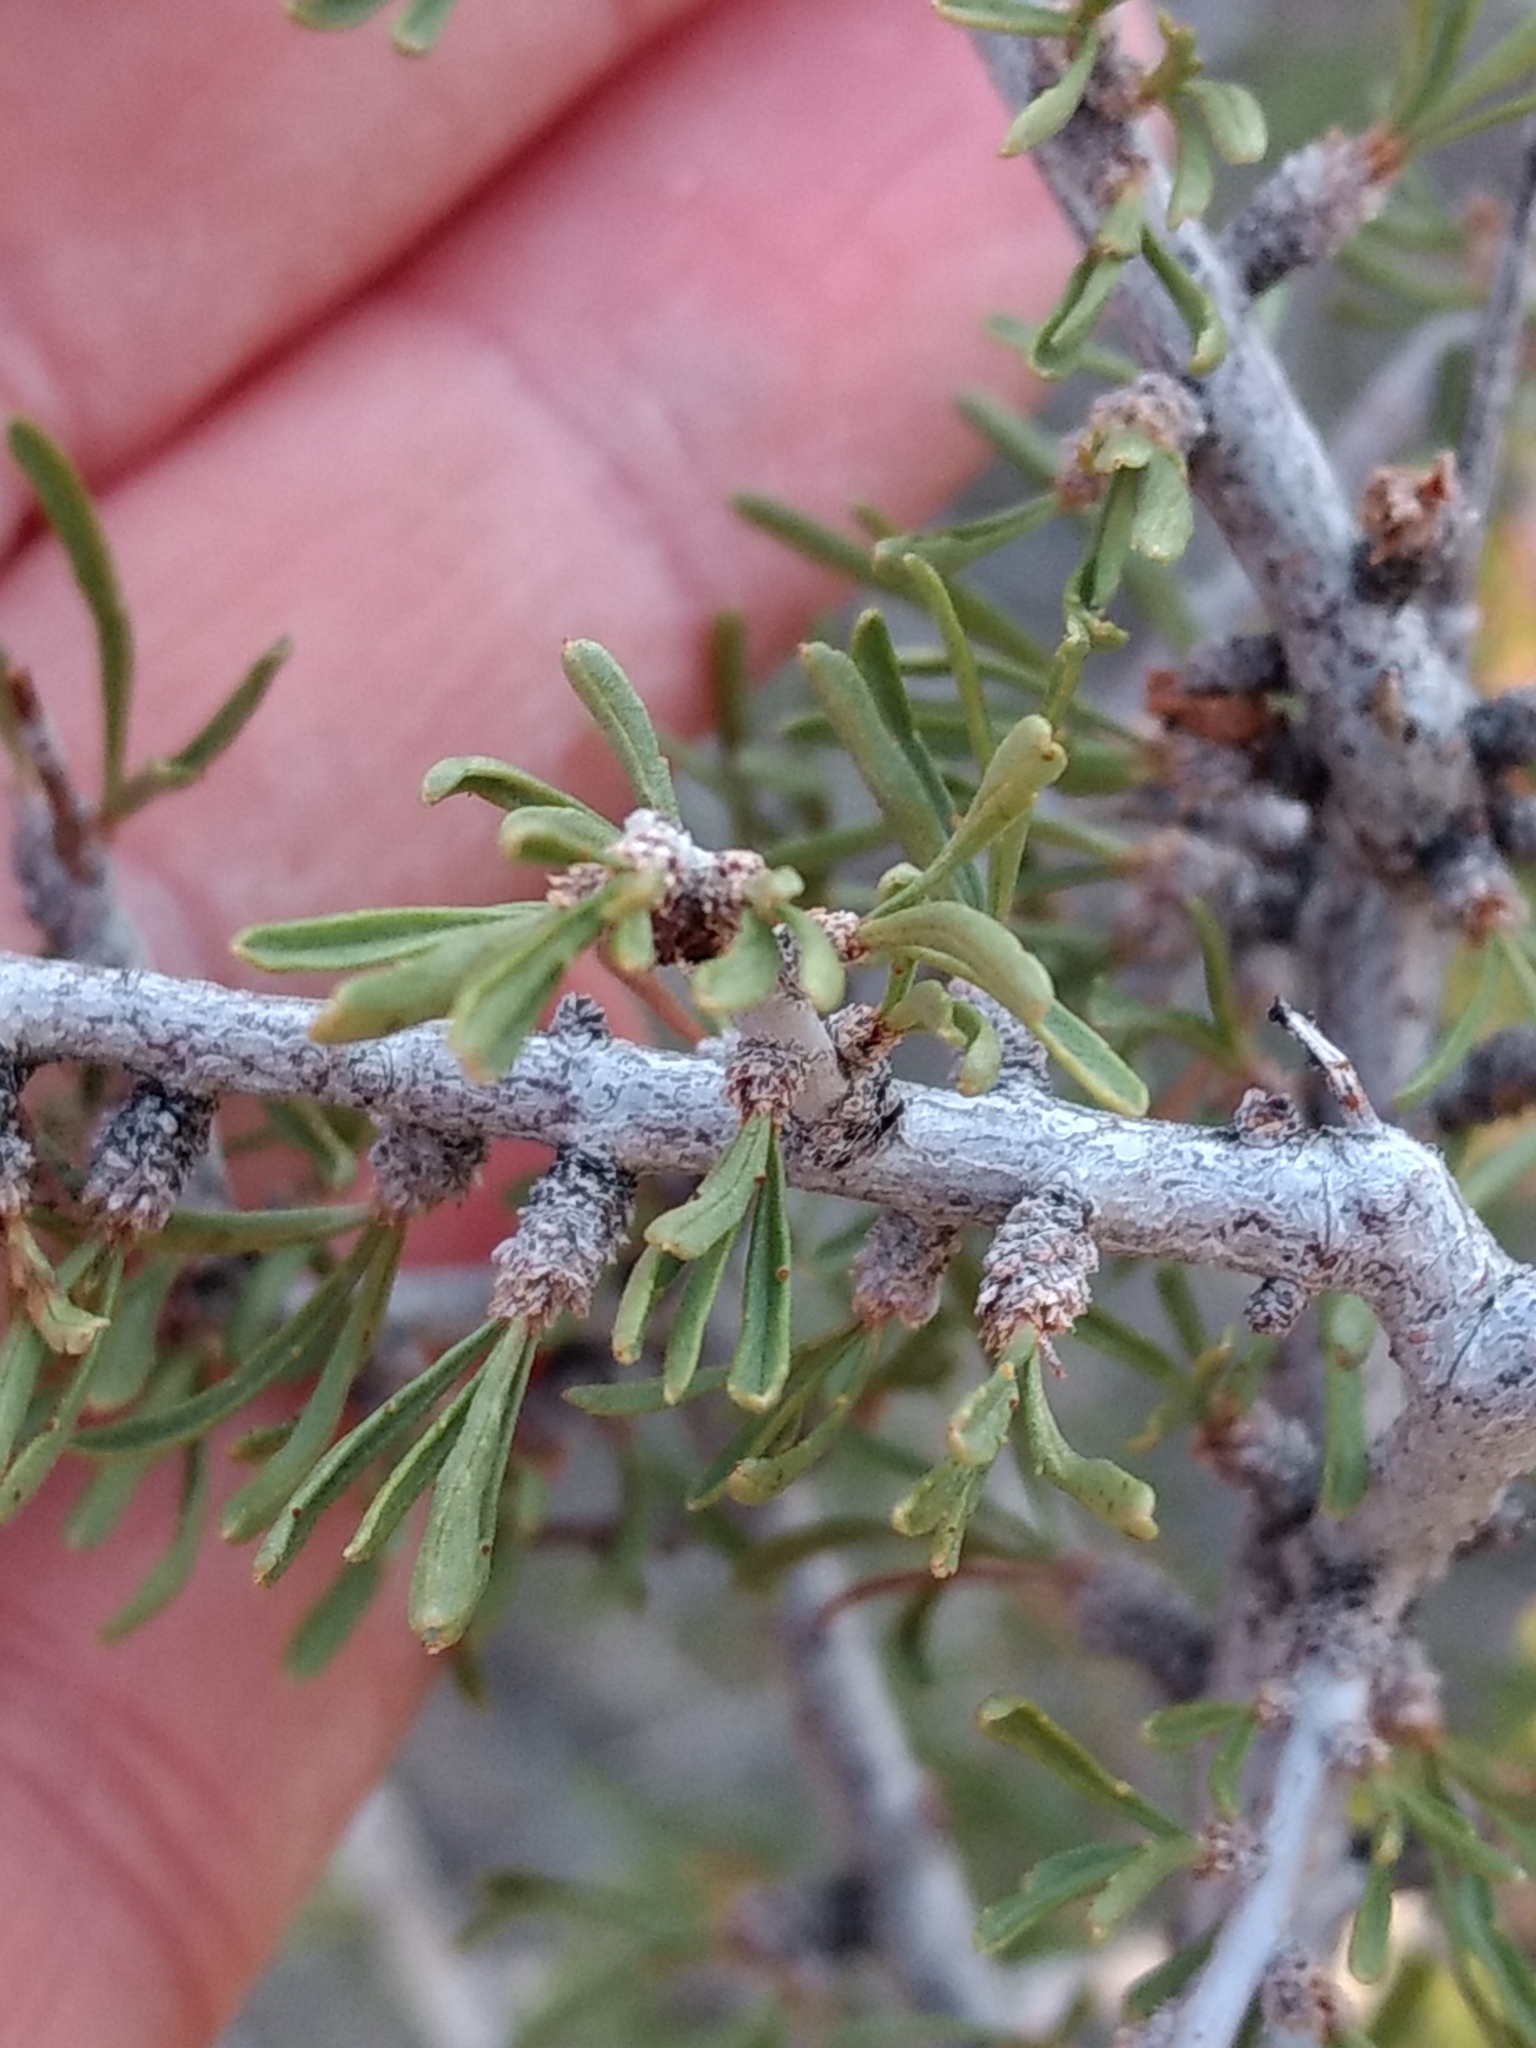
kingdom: Plantae
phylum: Tracheophyta
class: Magnoliopsida
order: Rosales
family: Rosaceae
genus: Prunus
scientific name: Prunus fasciculata
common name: Desert almond
